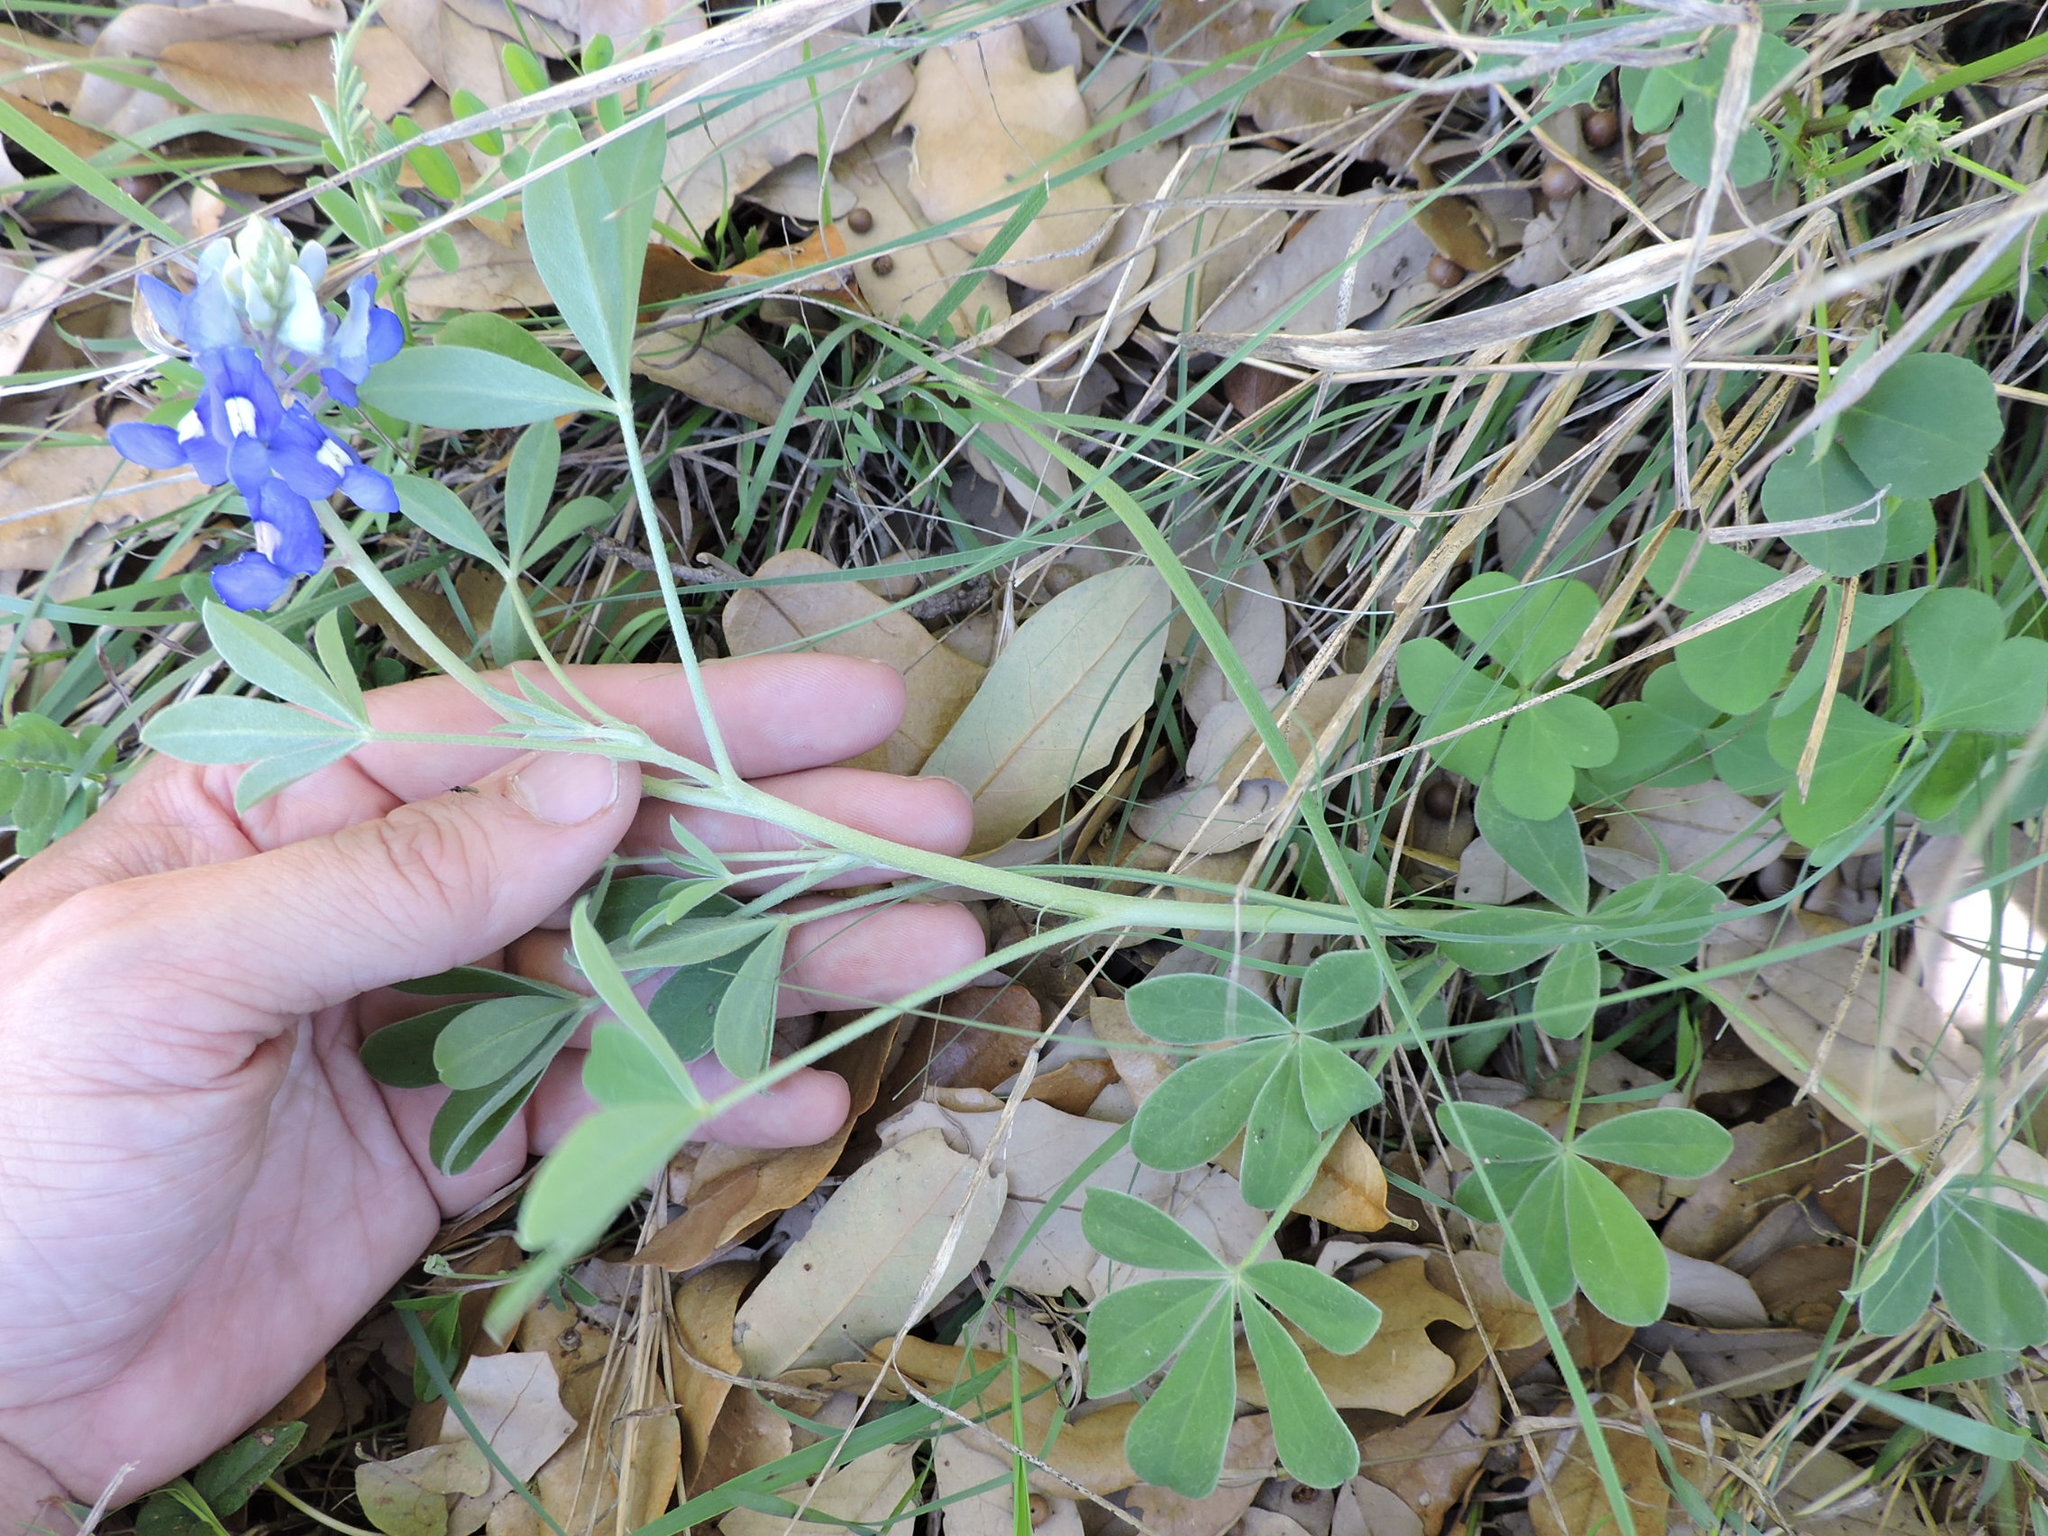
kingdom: Plantae
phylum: Tracheophyta
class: Magnoliopsida
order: Fabales
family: Fabaceae
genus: Lupinus
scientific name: Lupinus texensis
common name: Texas bluebonnet
